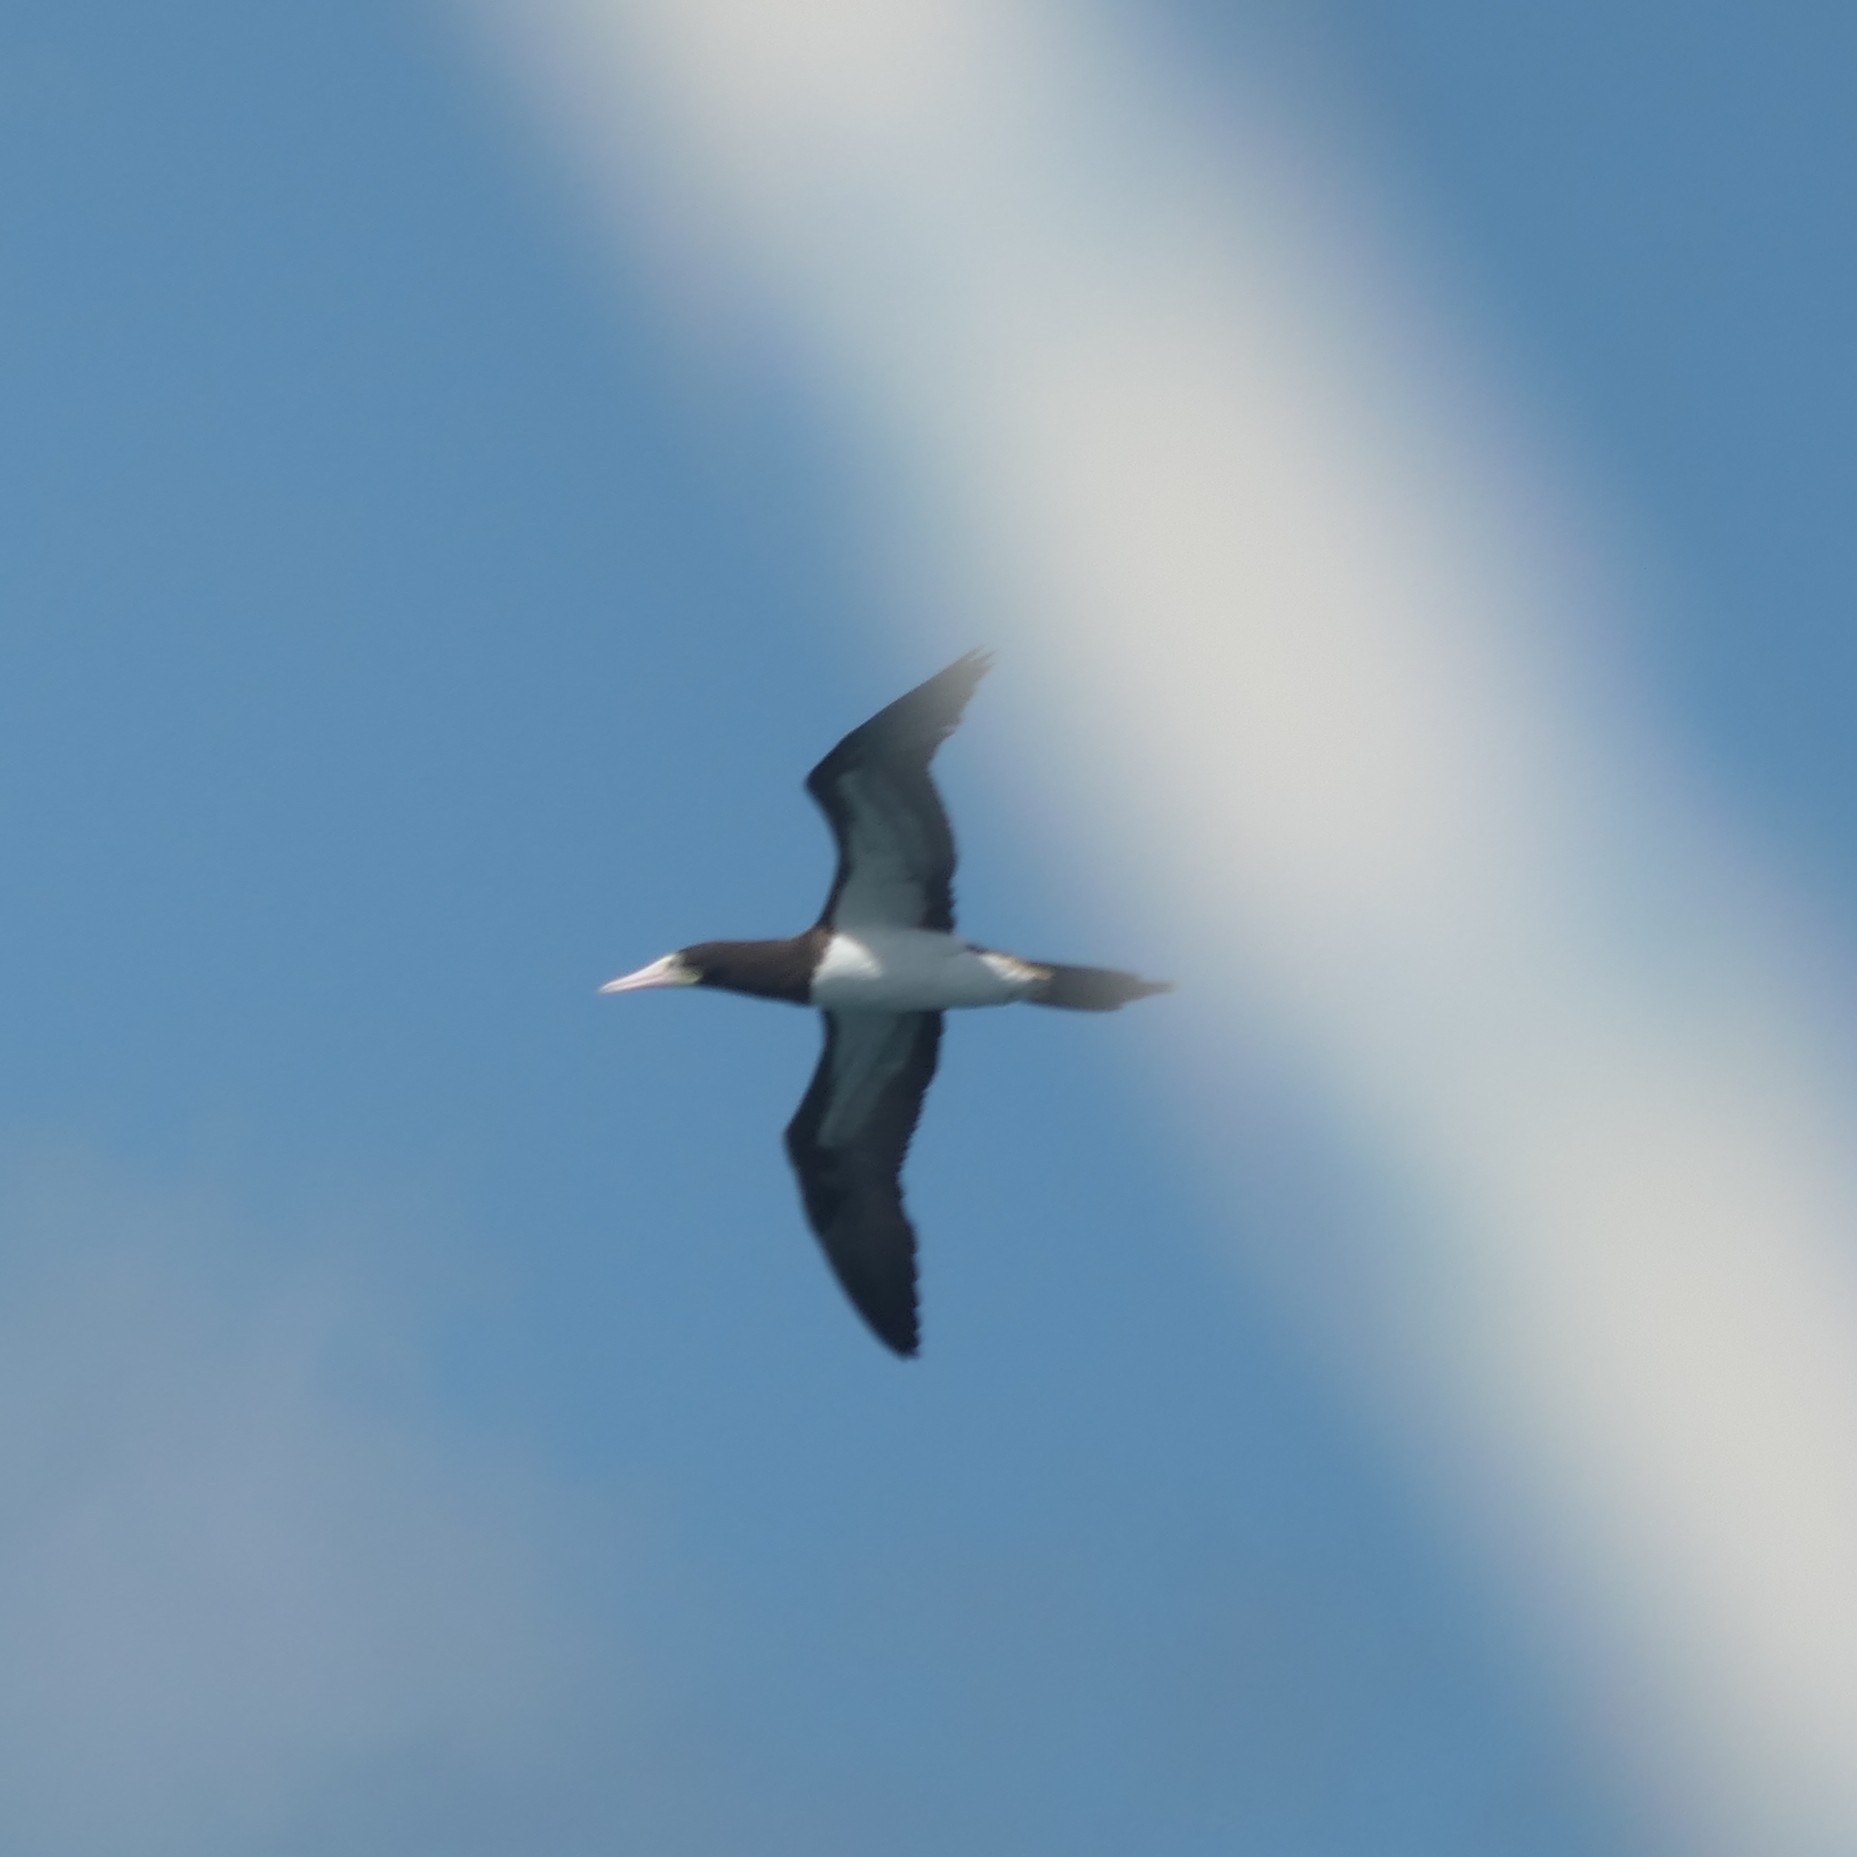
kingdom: Animalia
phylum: Chordata
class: Aves
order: Suliformes
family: Sulidae
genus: Sula
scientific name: Sula leucogaster
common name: Brown booby
